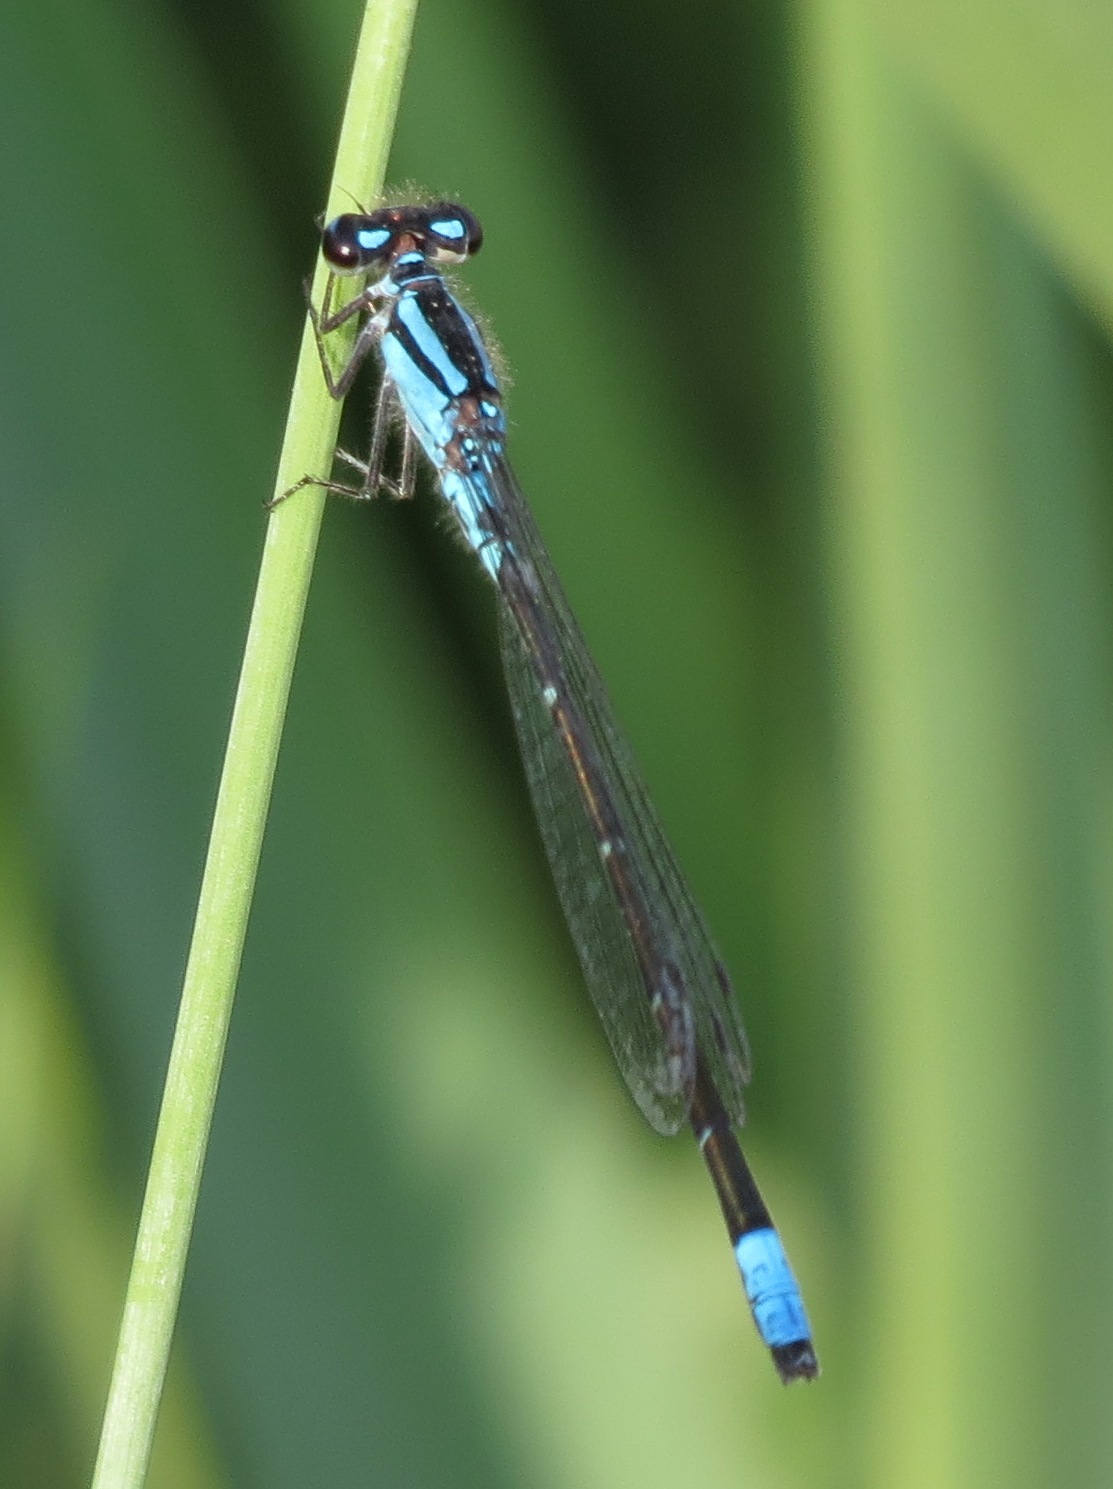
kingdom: Animalia
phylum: Arthropoda
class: Insecta
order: Odonata
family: Coenagrionidae
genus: Enallagma
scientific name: Enallagma geminatum
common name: Skimming bluet
